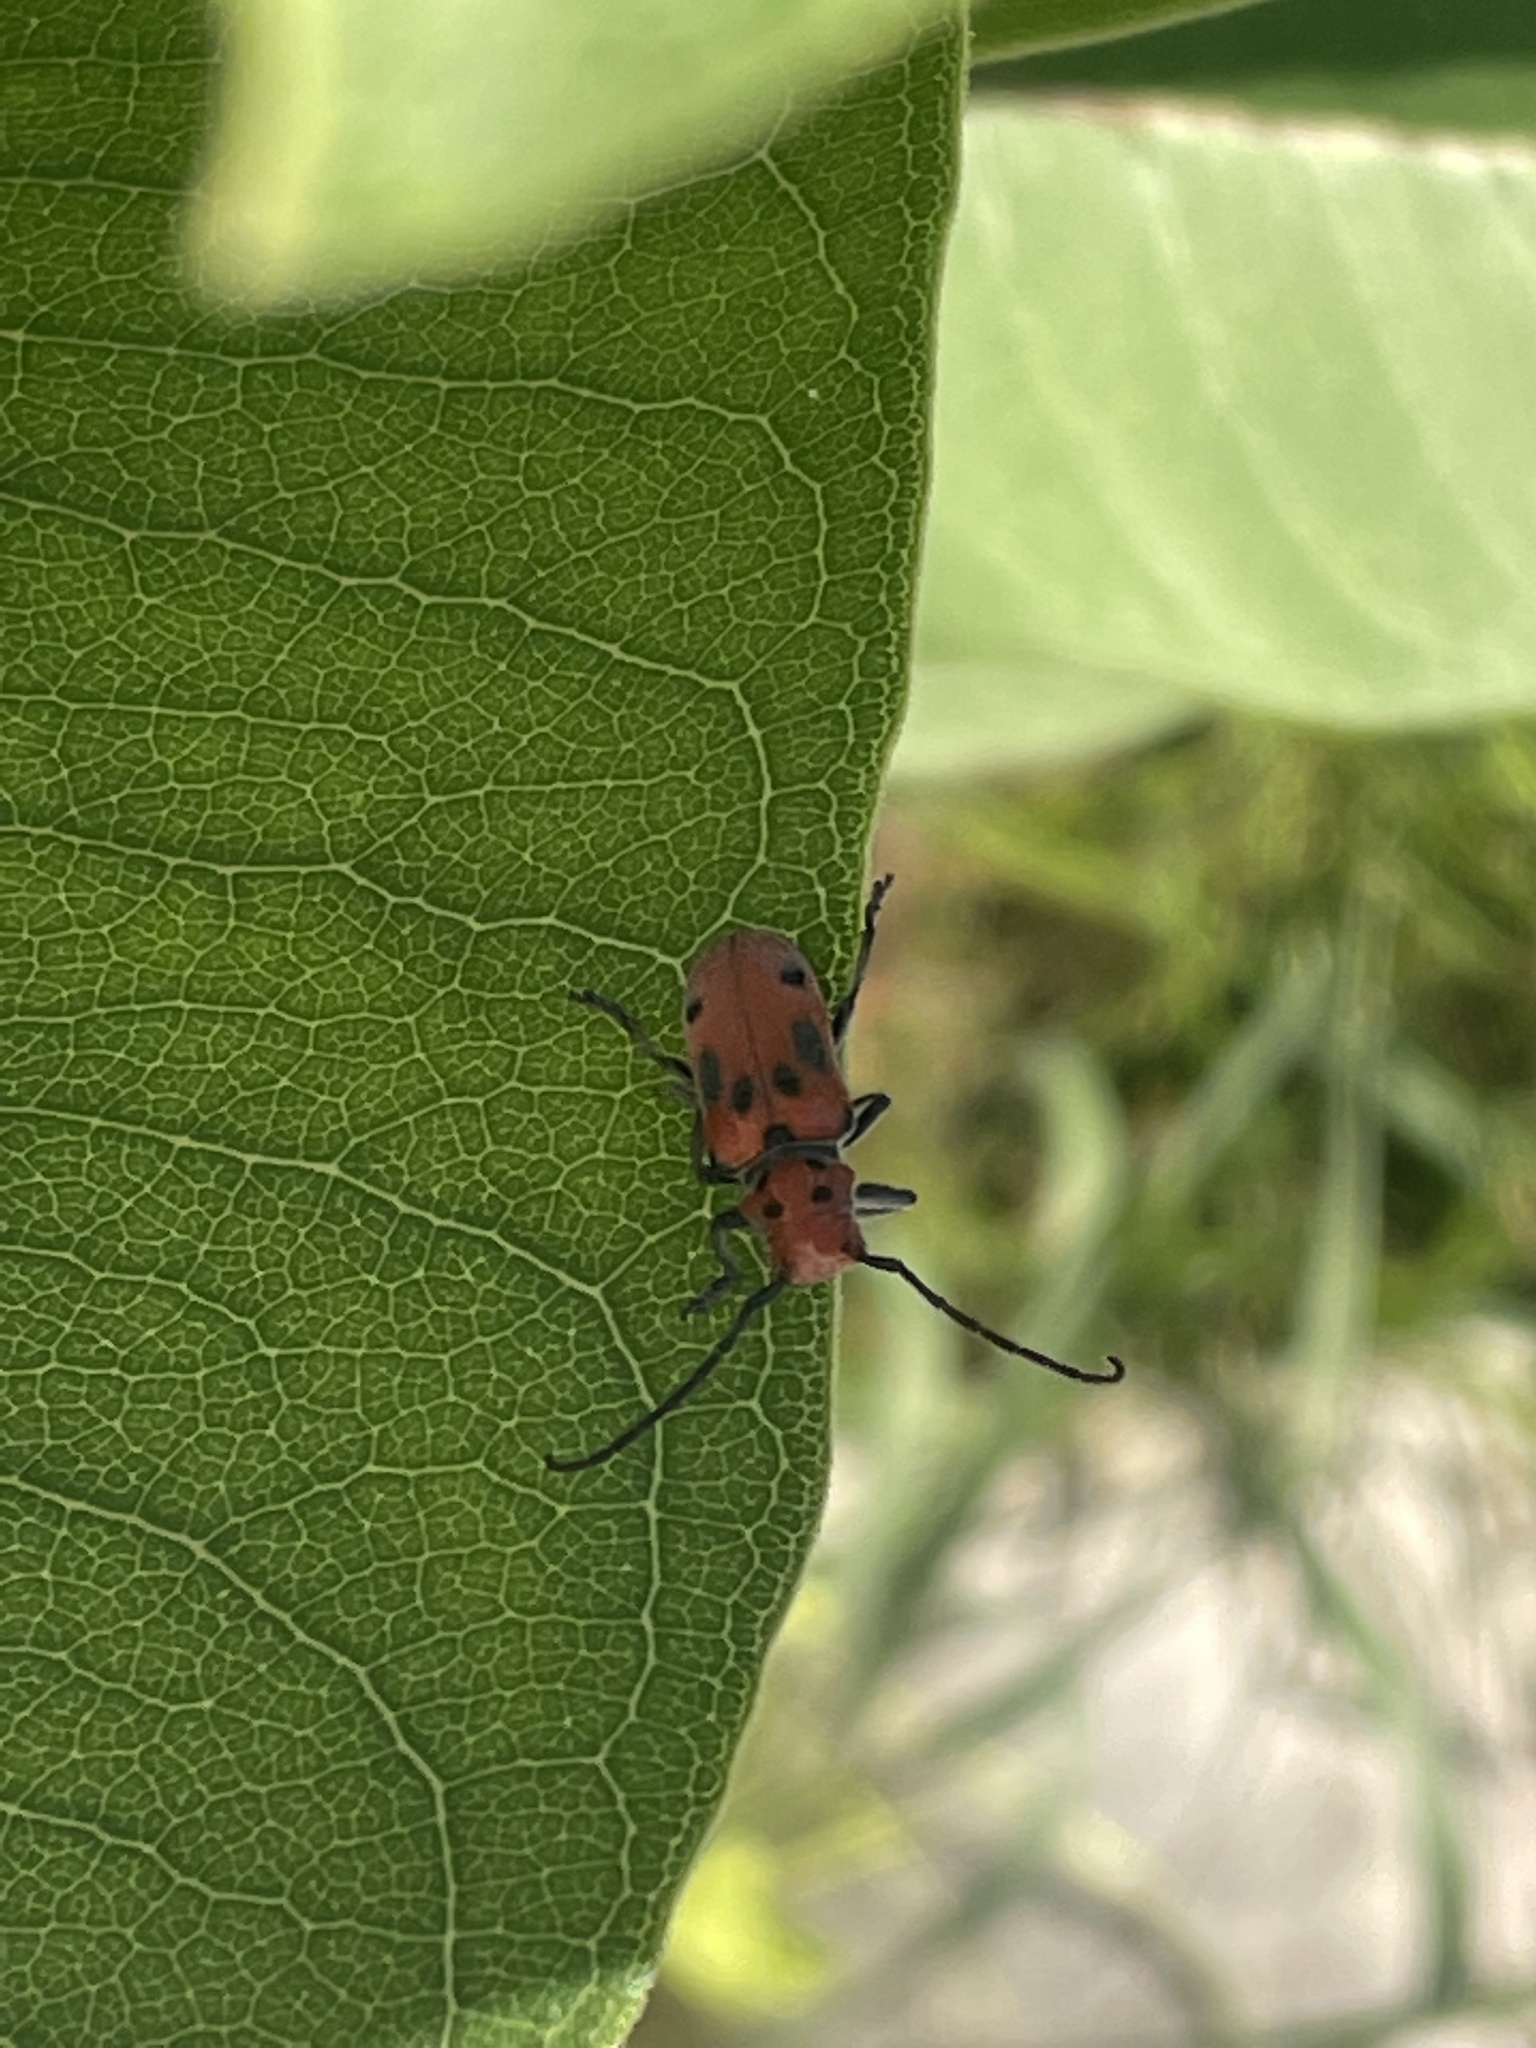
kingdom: Animalia
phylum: Arthropoda
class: Insecta
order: Coleoptera
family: Cerambycidae
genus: Tetraopes
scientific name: Tetraopes tetrophthalmus
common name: Red milkweed beetle
